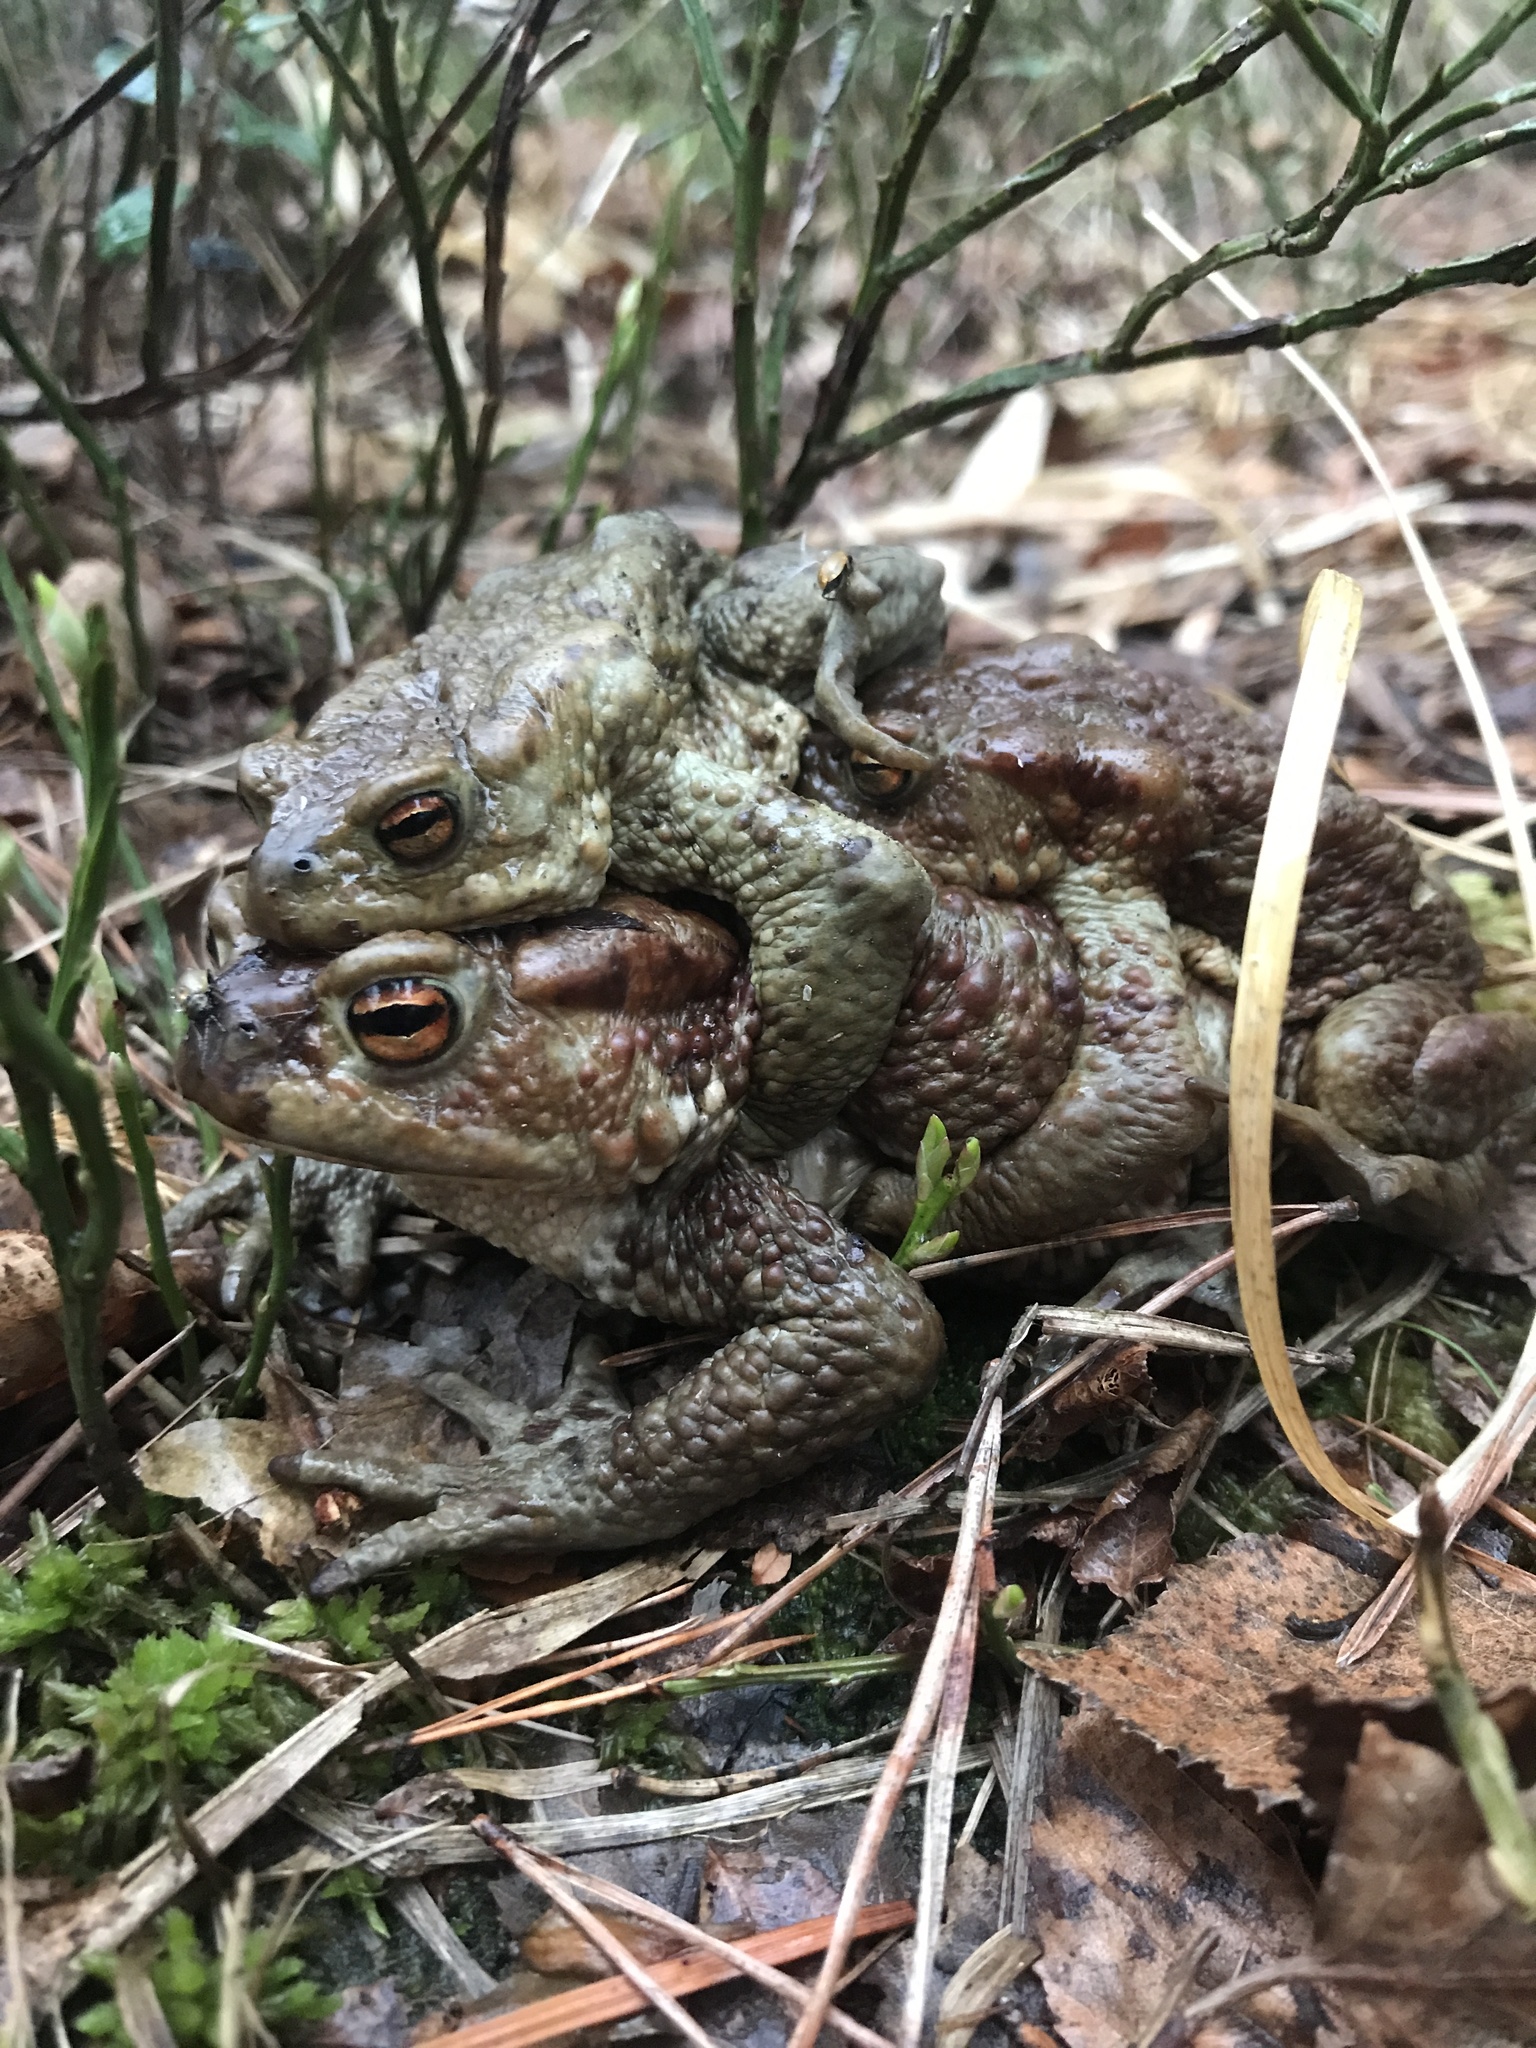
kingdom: Animalia
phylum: Chordata
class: Amphibia
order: Anura
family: Bufonidae
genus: Bufo
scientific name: Bufo bufo
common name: Common toad
